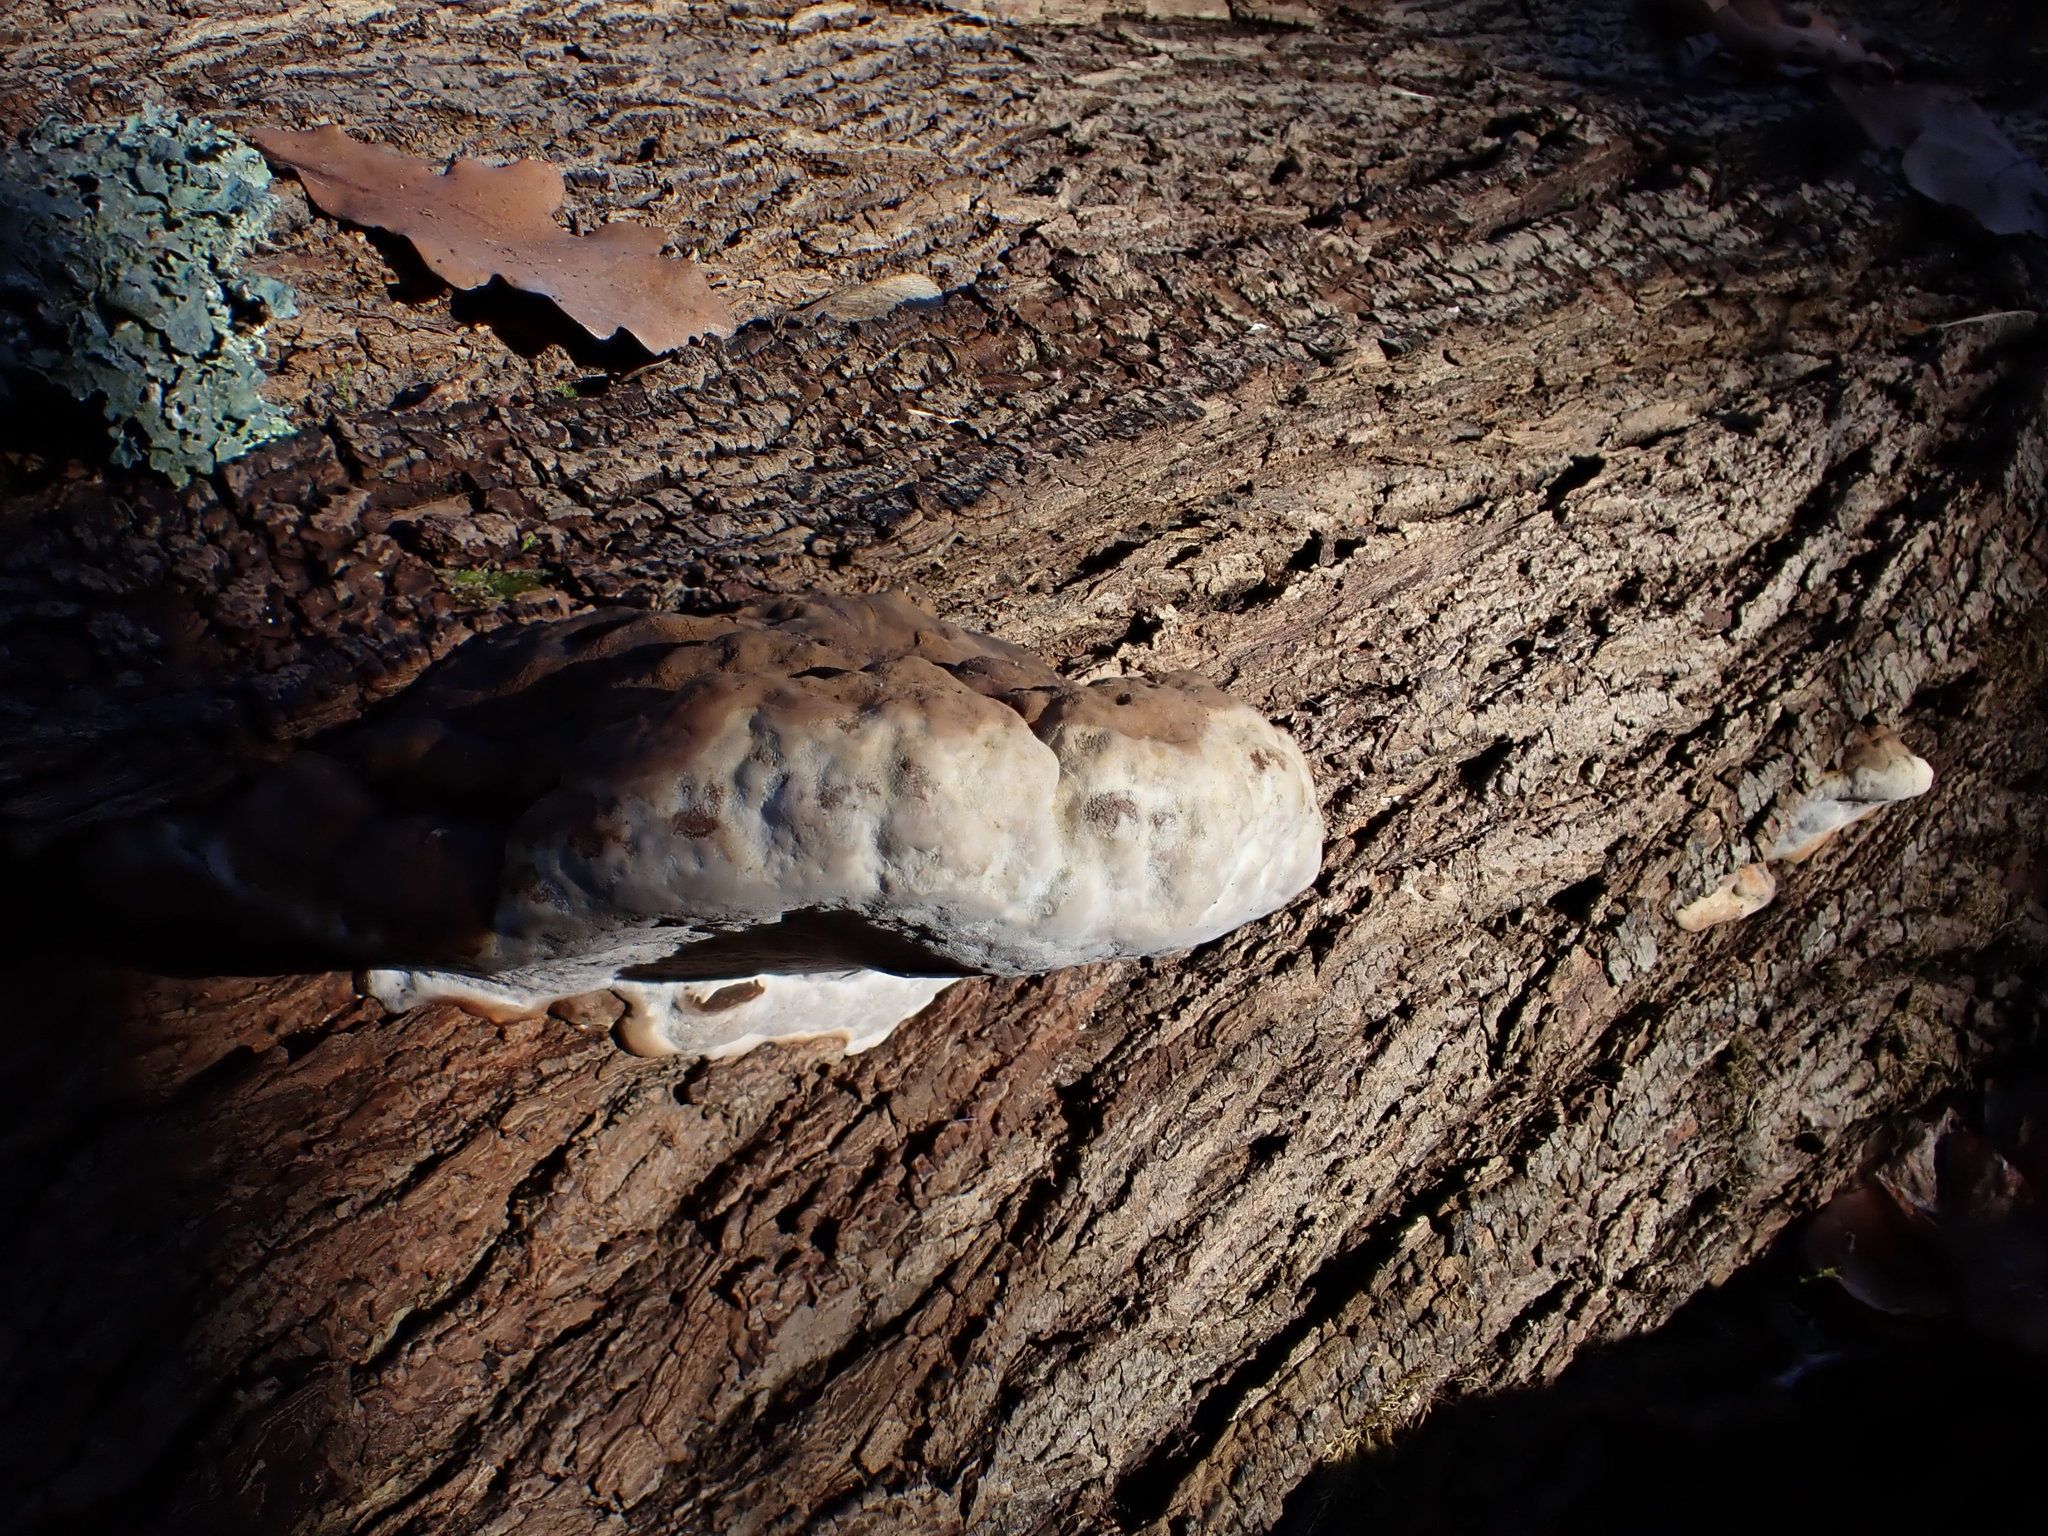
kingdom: Fungi
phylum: Basidiomycota
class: Agaricomycetes
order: Polyporales
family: Fomitopsidaceae
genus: Fomitopsis
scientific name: Fomitopsis pinicola
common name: Red-belted bracket
